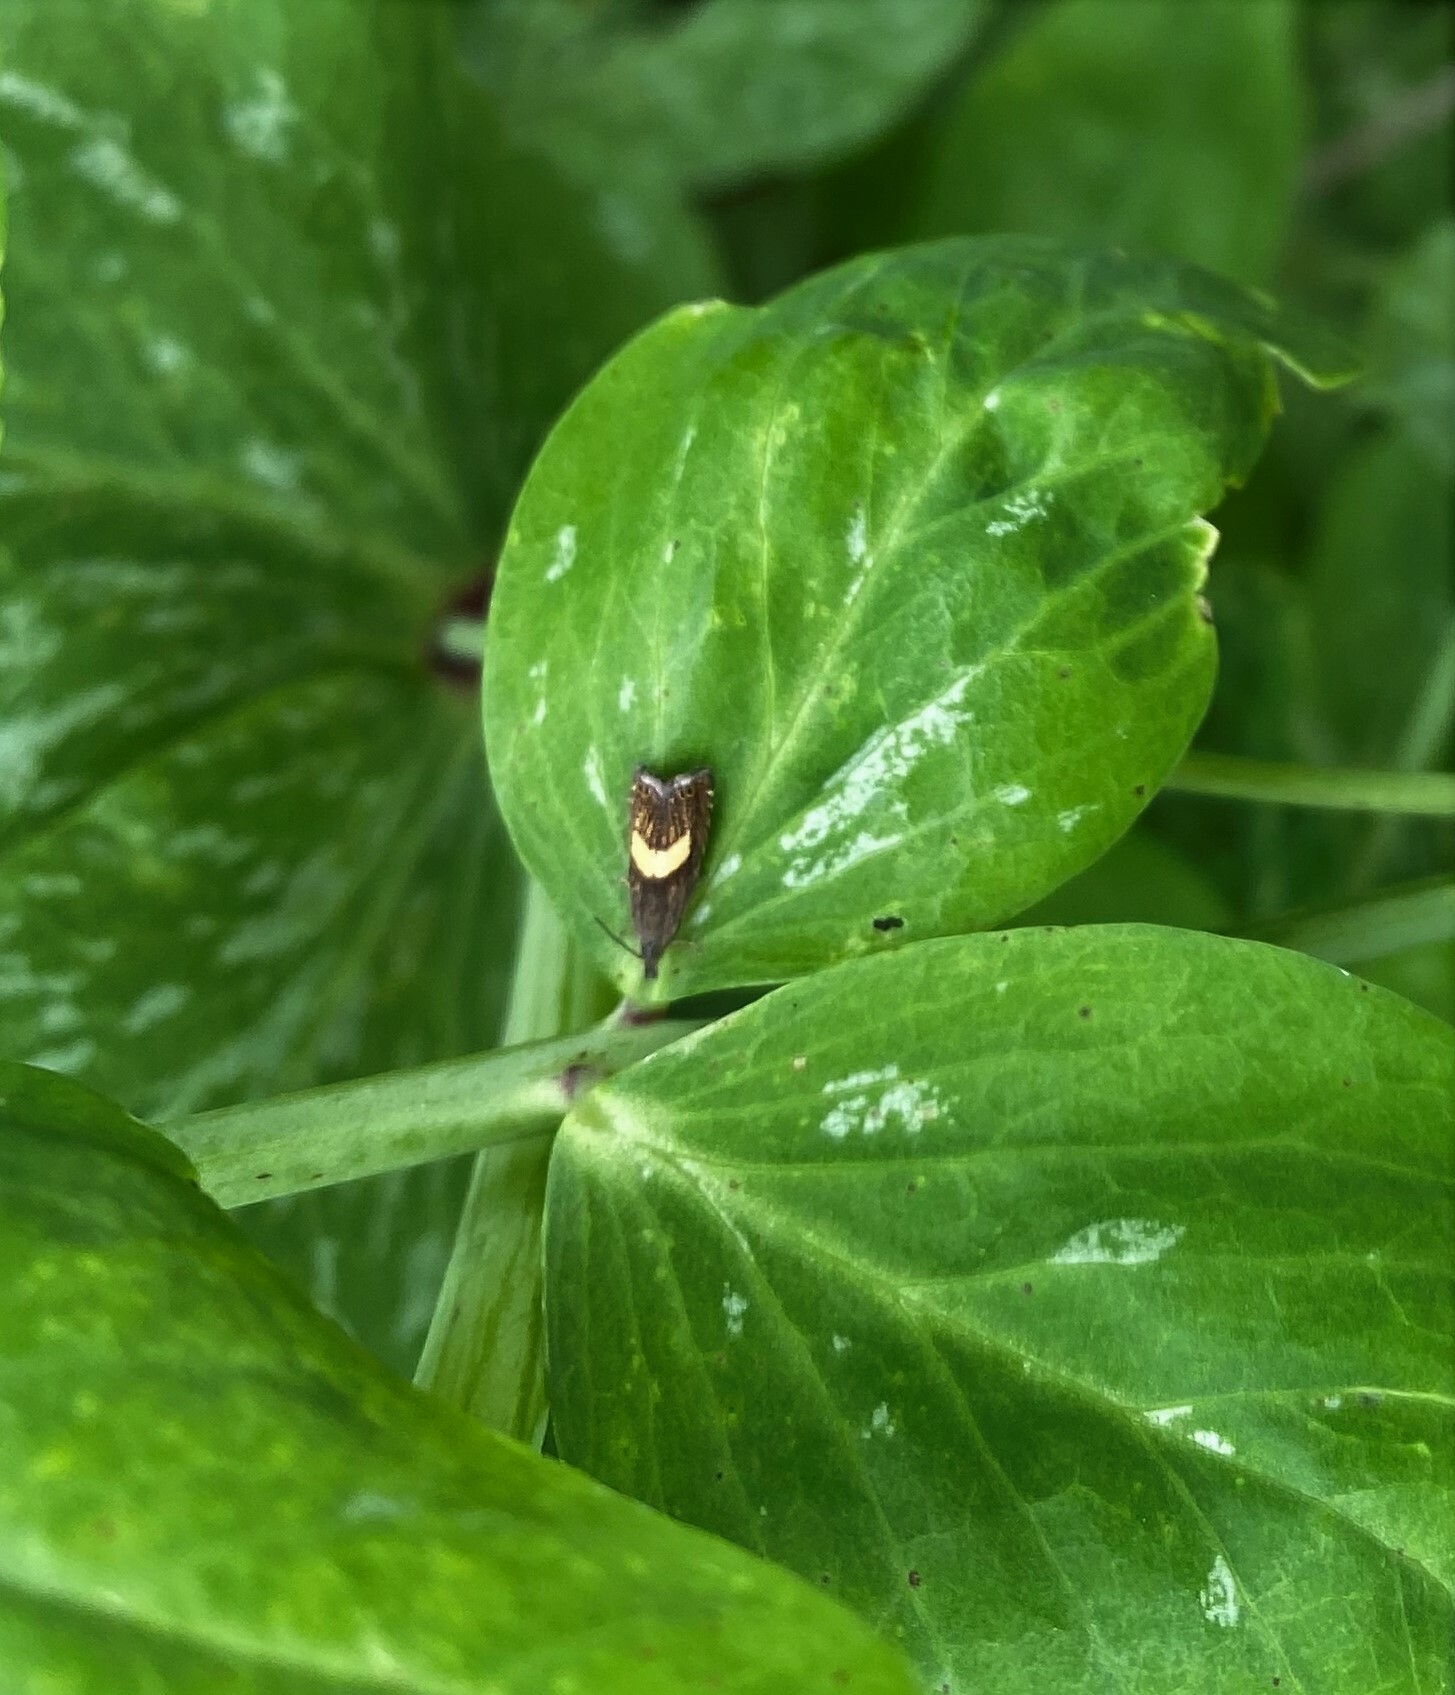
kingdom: Animalia
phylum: Arthropoda
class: Insecta
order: Lepidoptera
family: Tortricidae
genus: Dichrorampha
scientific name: Dichrorampha petiverella
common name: Common drill
